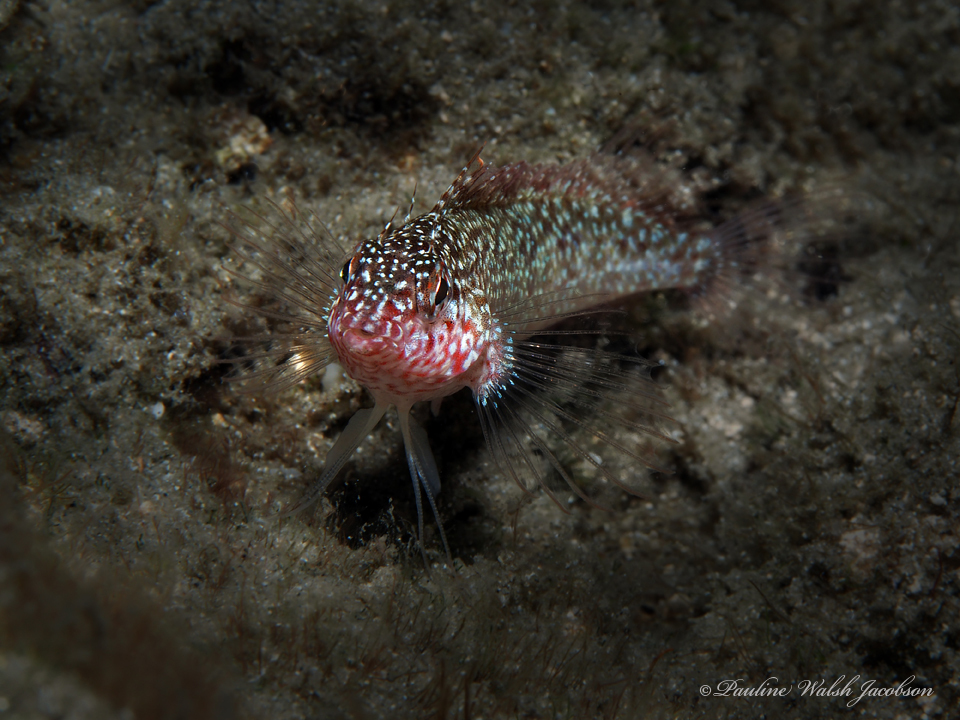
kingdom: Animalia
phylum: Chordata
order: Perciformes
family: Labrisomidae
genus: Malacoctenus
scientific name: Malacoctenus macropus
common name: Rosy blenny
